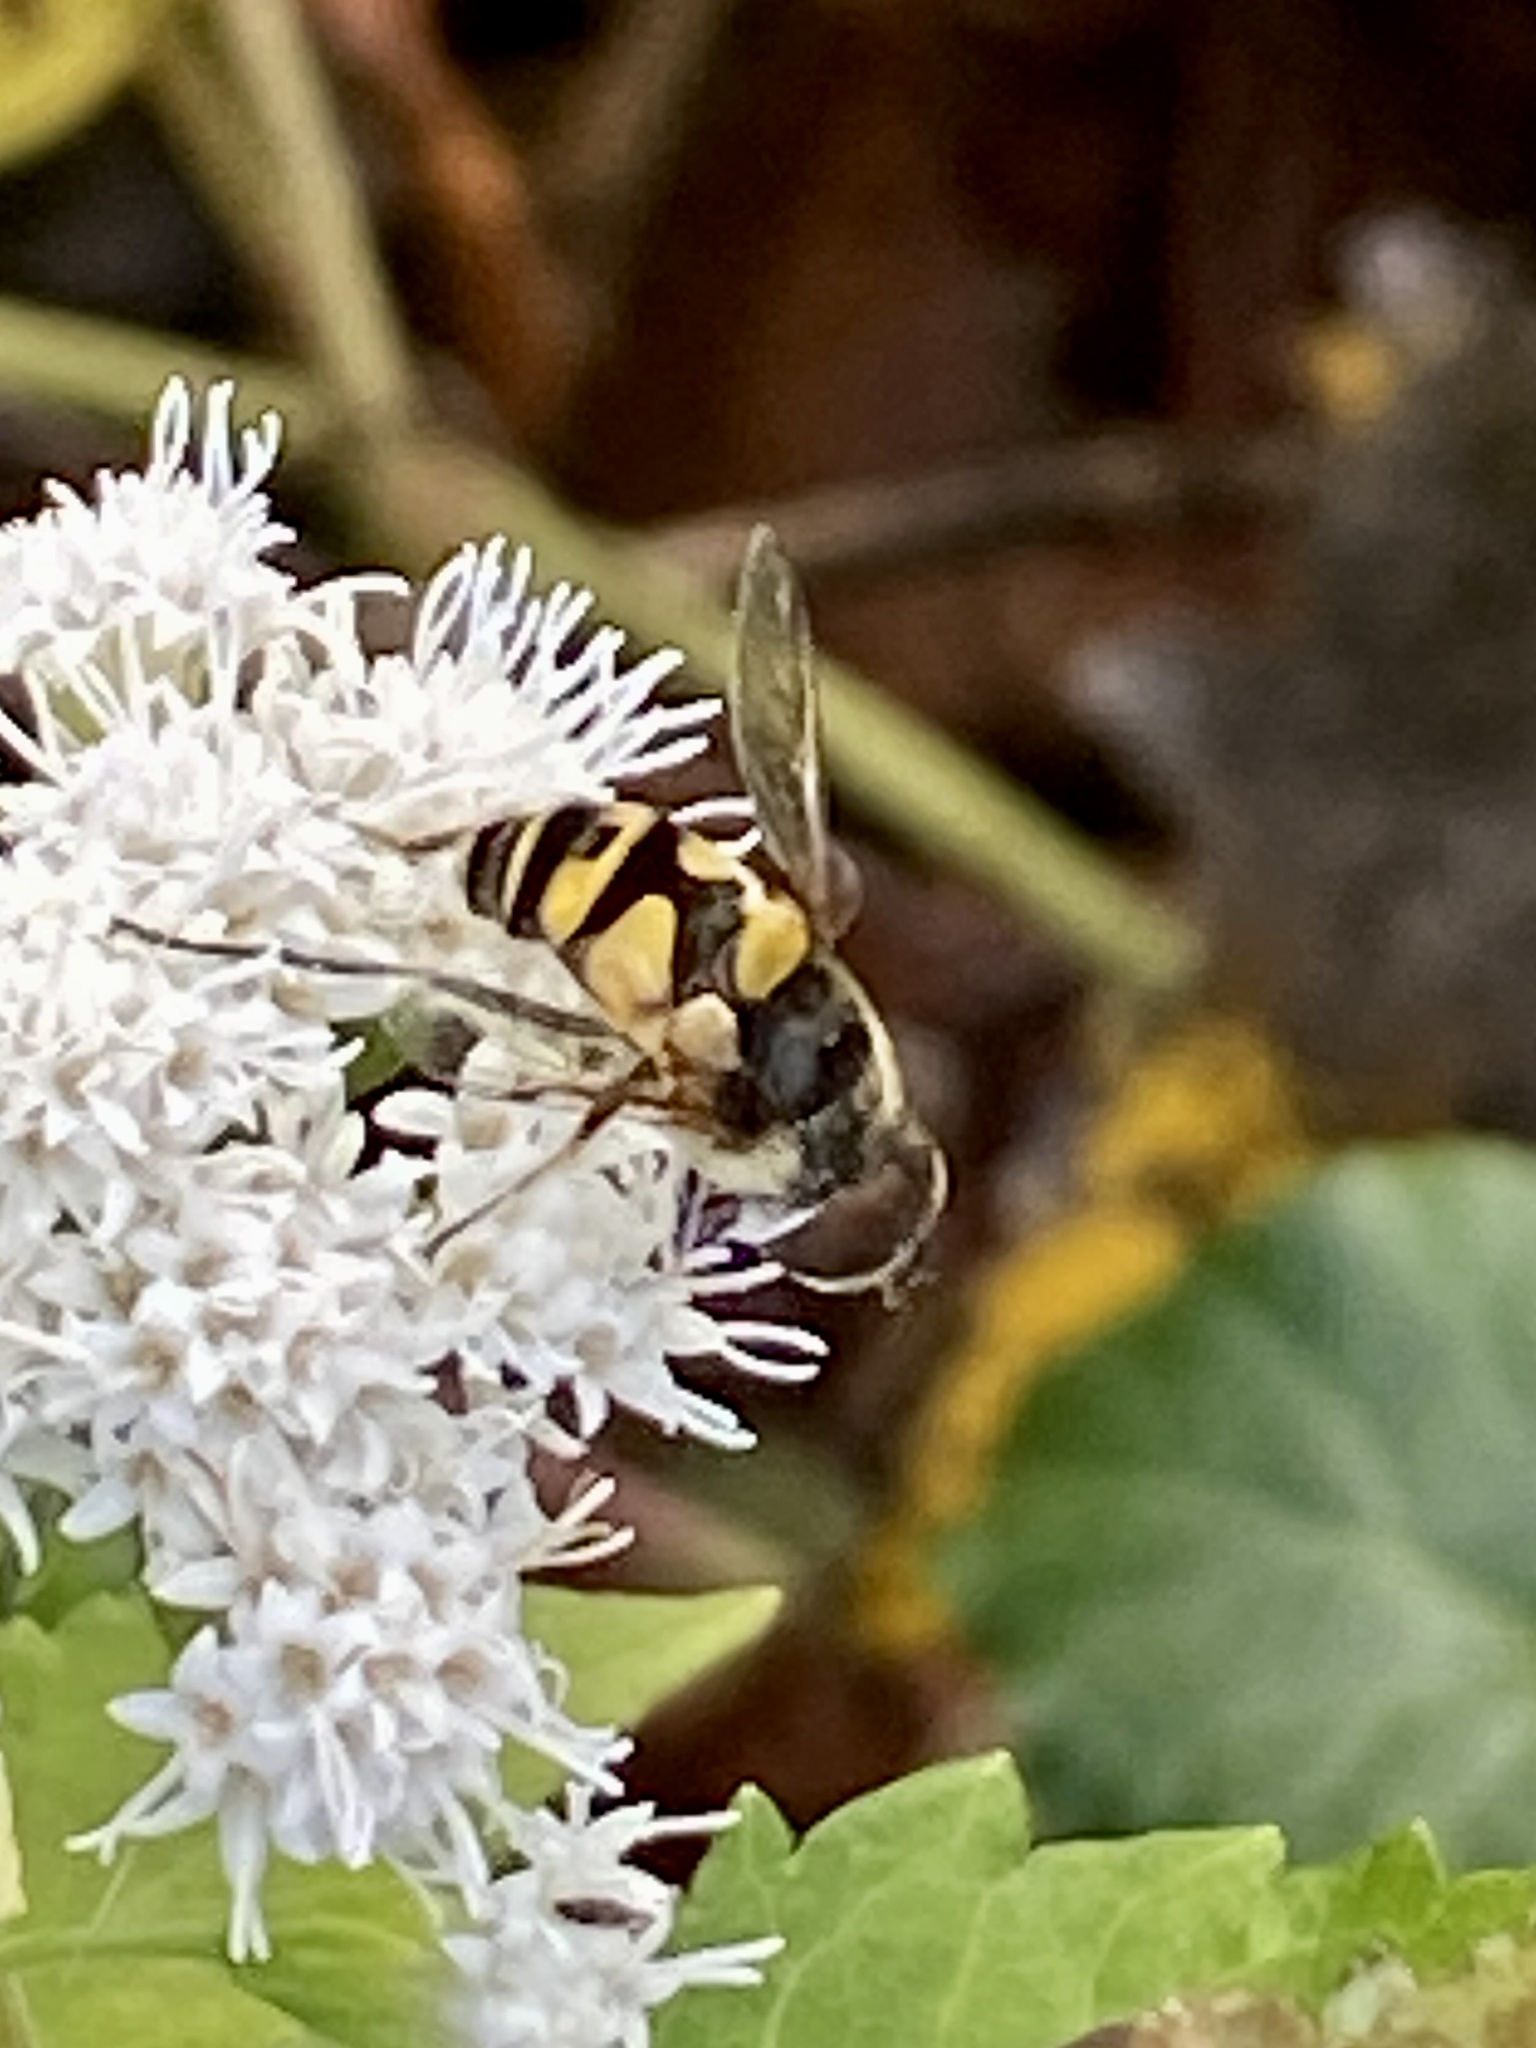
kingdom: Animalia
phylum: Arthropoda
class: Insecta
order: Diptera
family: Syrphidae
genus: Eristalis
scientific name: Eristalis transversa
